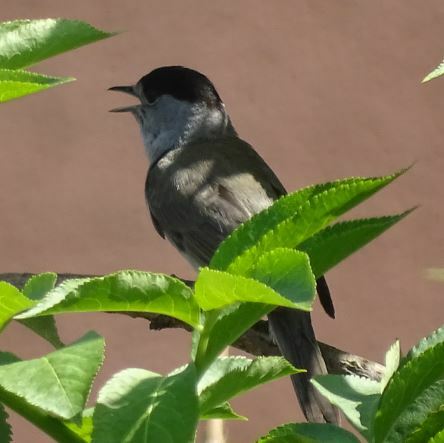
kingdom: Animalia
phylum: Chordata
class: Aves
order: Passeriformes
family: Sylviidae
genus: Sylvia
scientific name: Sylvia atricapilla
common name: Eurasian blackcap
